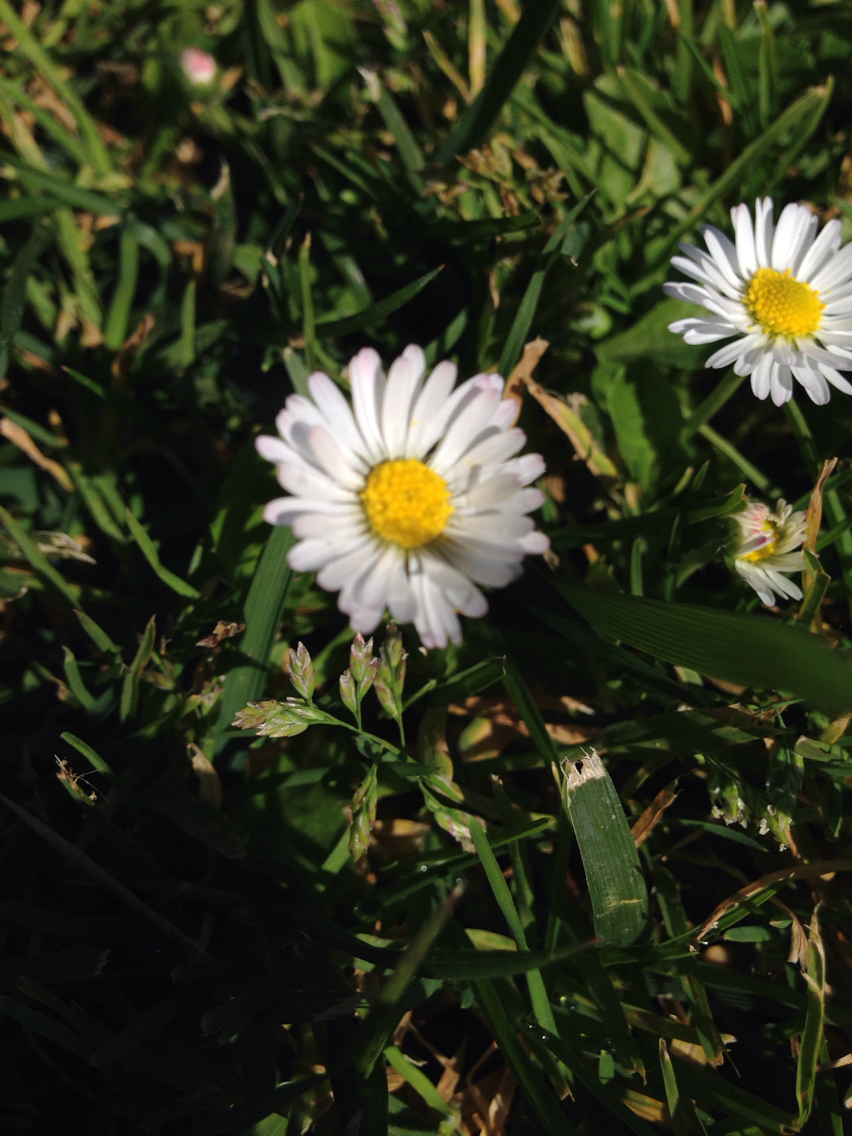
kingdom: Plantae
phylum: Tracheophyta
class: Magnoliopsida
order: Asterales
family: Asteraceae
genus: Bellis
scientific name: Bellis perennis
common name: Lawndaisy
